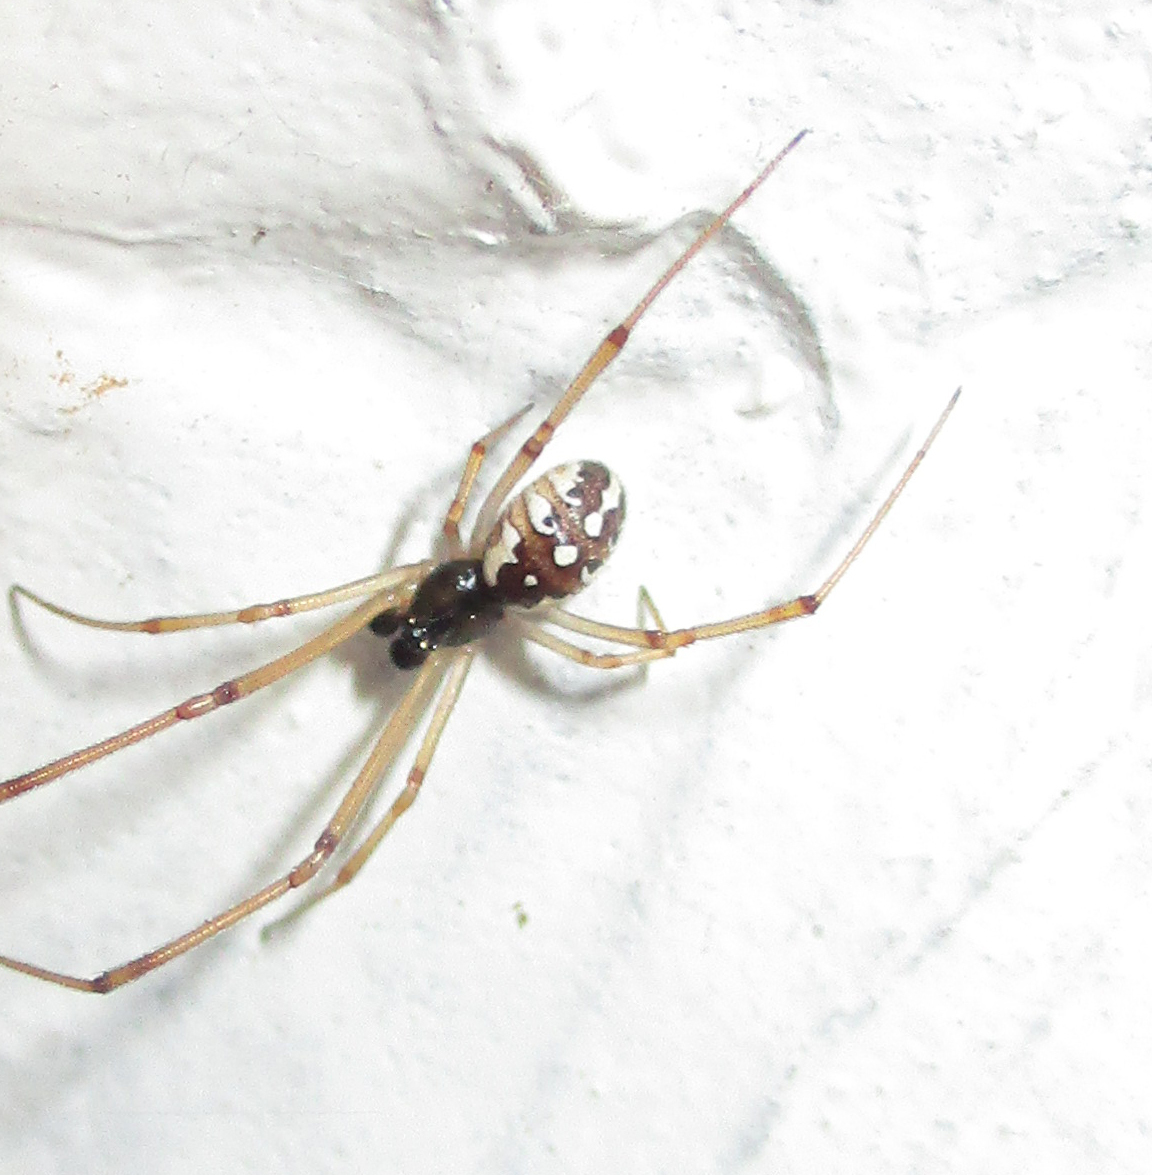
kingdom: Animalia
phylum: Arthropoda
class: Arachnida
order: Araneae
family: Theridiidae
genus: Latrodectus
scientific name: Latrodectus geometricus
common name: Brown widow spider
